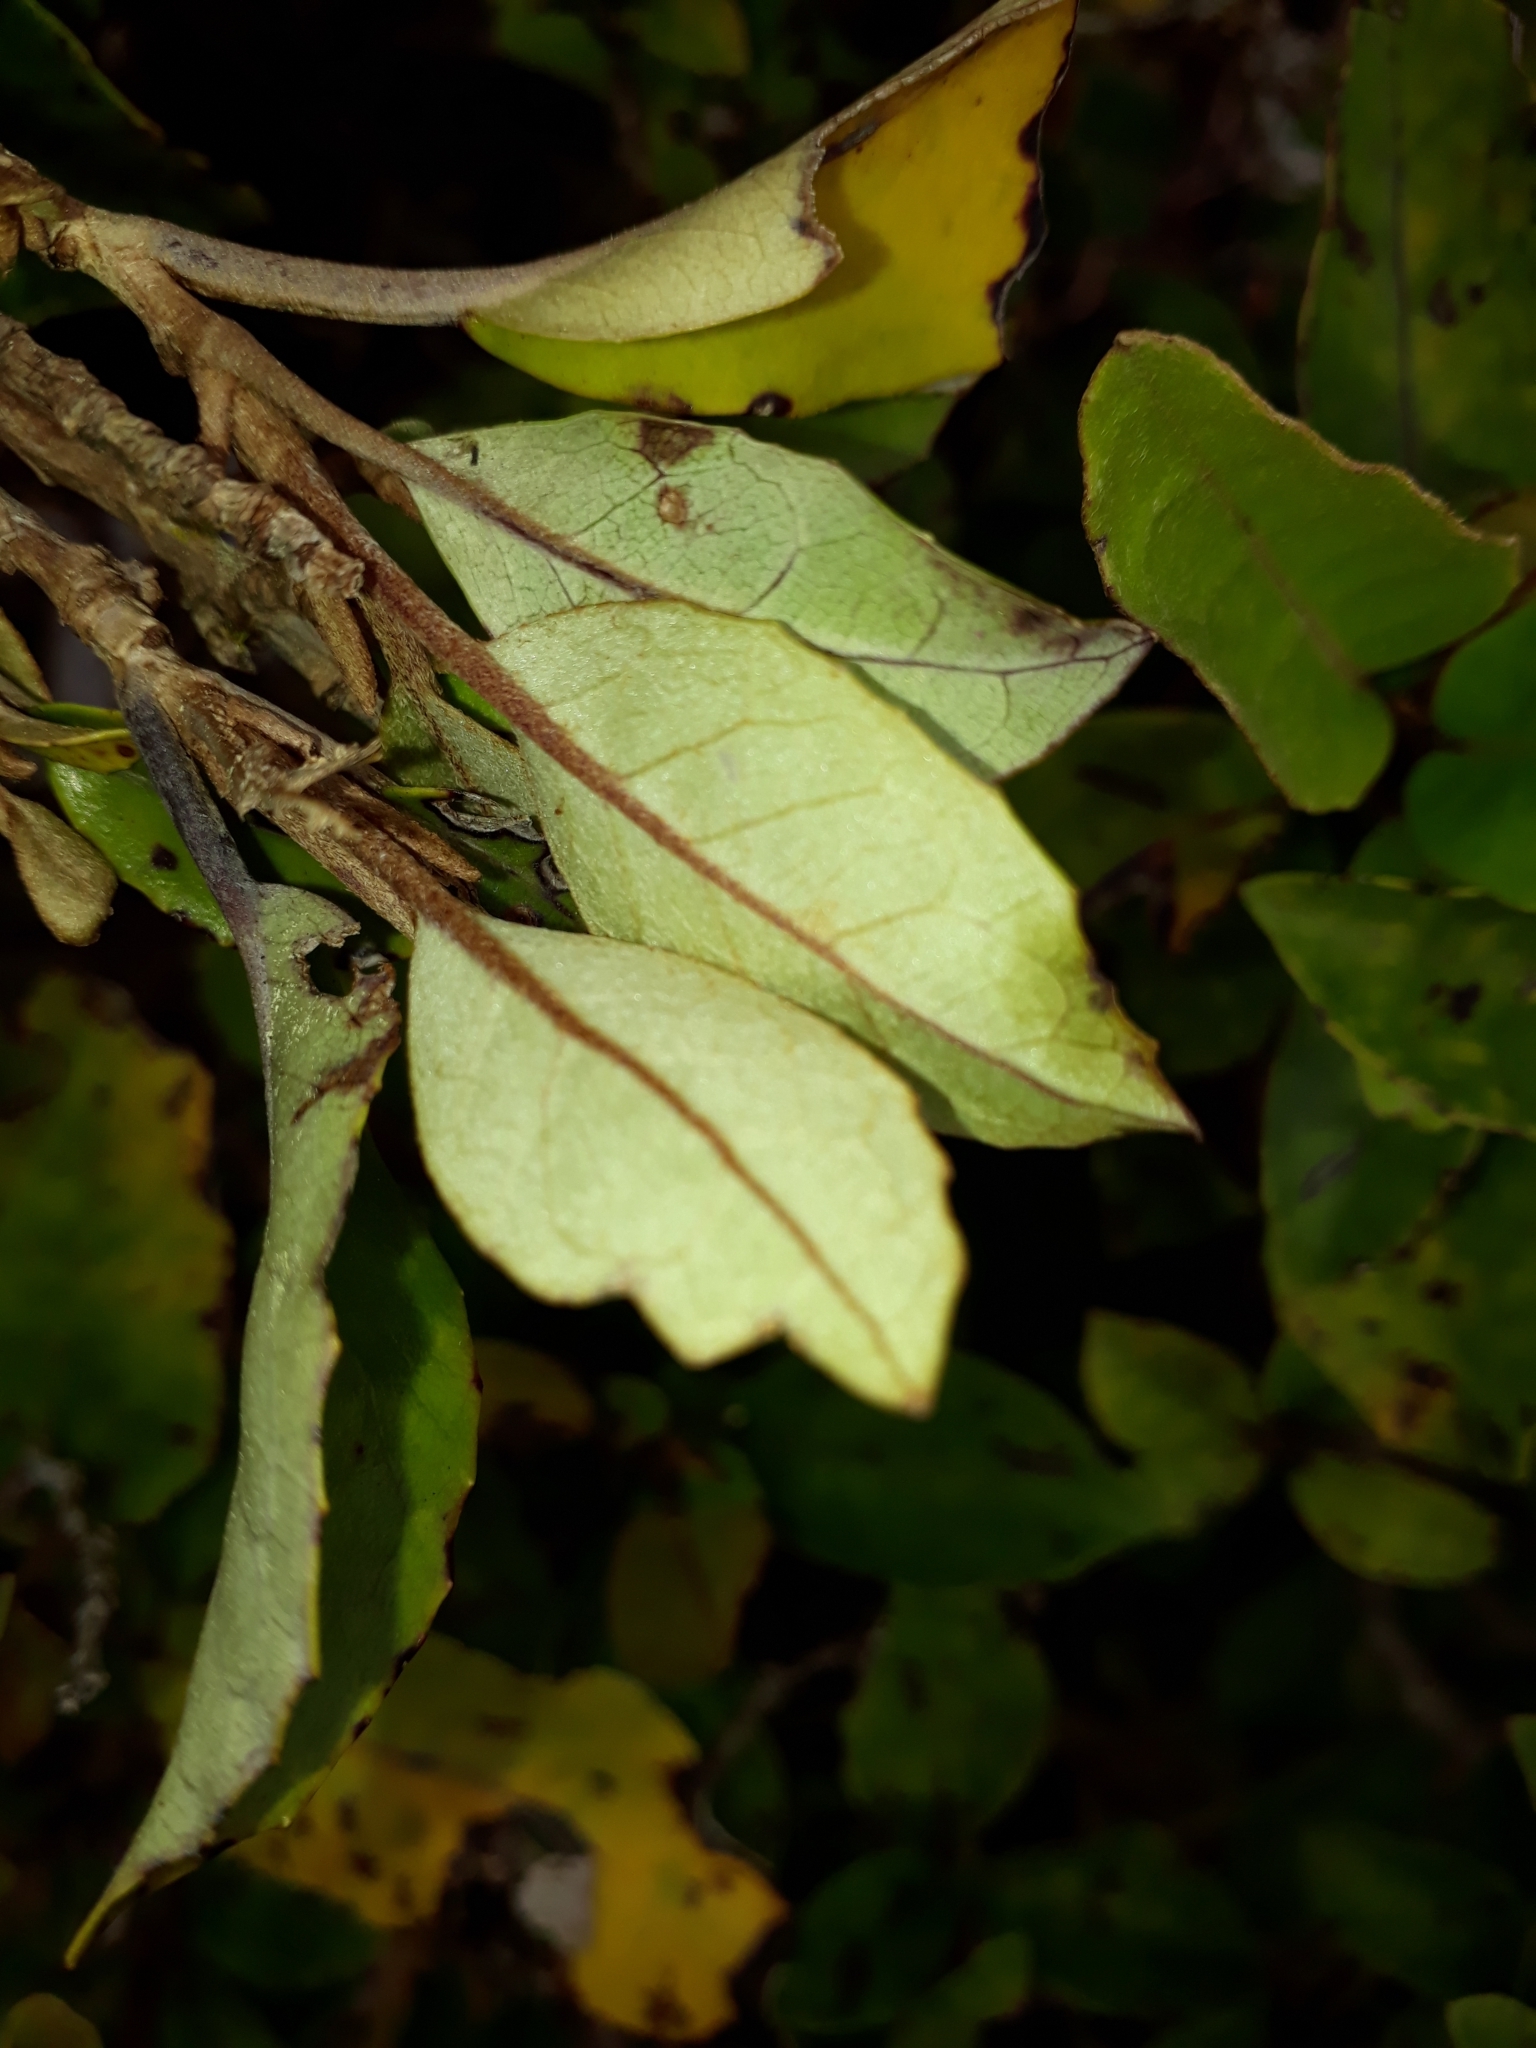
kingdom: Plantae
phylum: Tracheophyta
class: Magnoliopsida
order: Asterales
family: Asteraceae
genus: Olearia
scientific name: Olearia arborescens
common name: Glossy tree daisy
